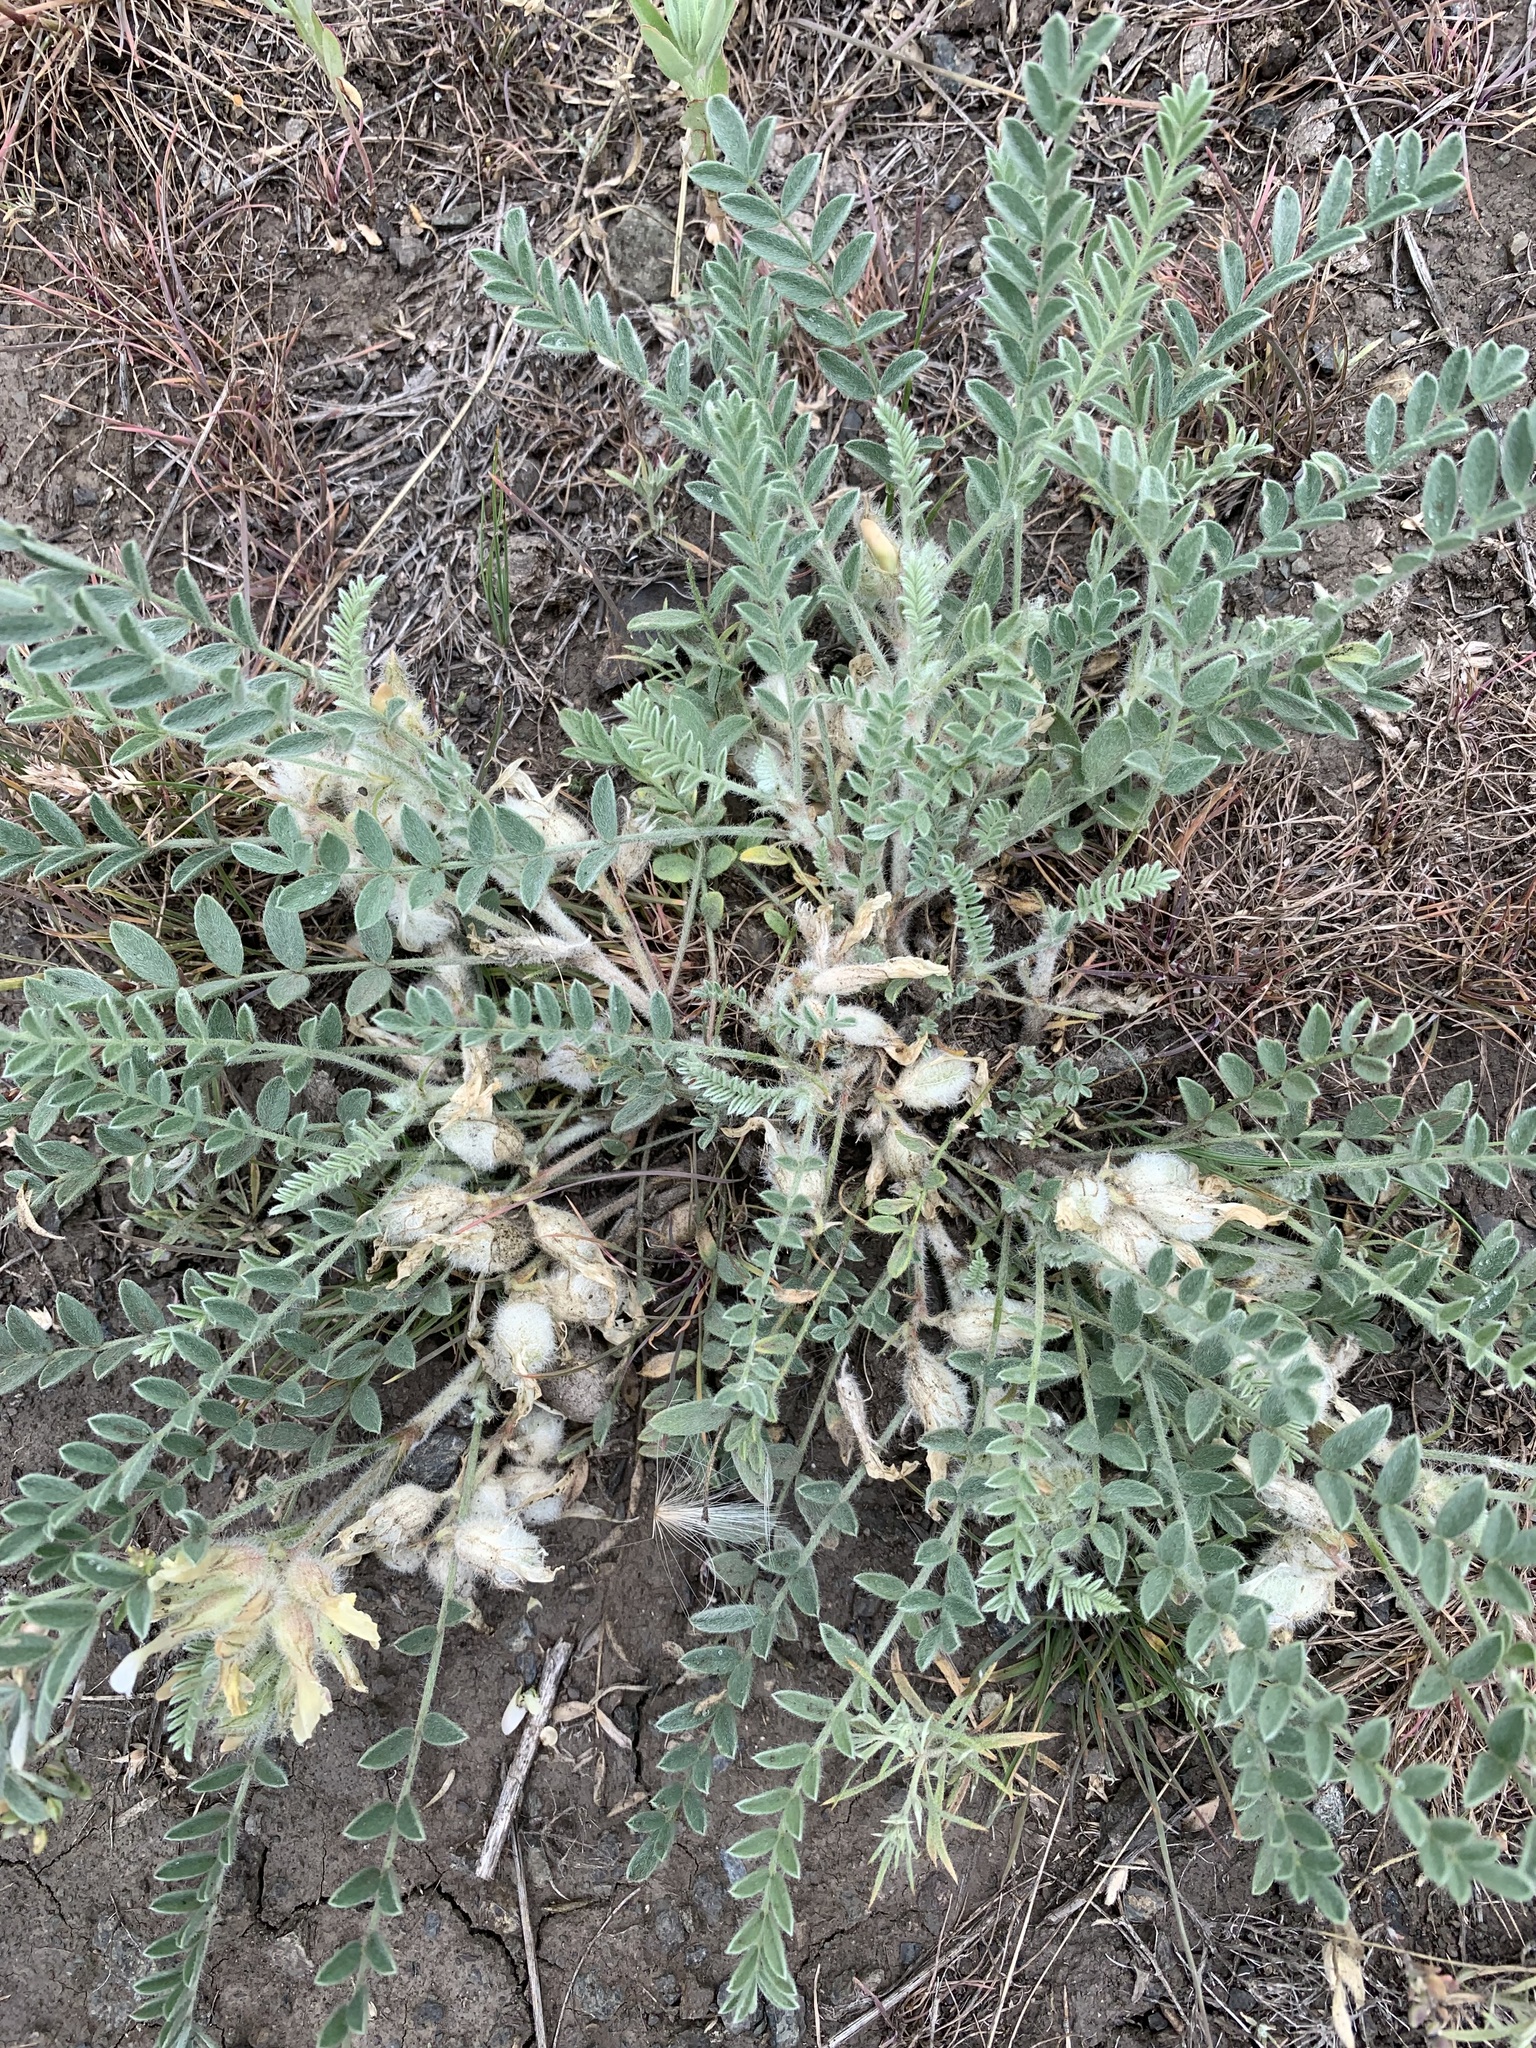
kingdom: Plantae
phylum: Tracheophyta
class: Magnoliopsida
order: Fabales
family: Fabaceae
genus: Astragalus
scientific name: Astragalus rupifragus
